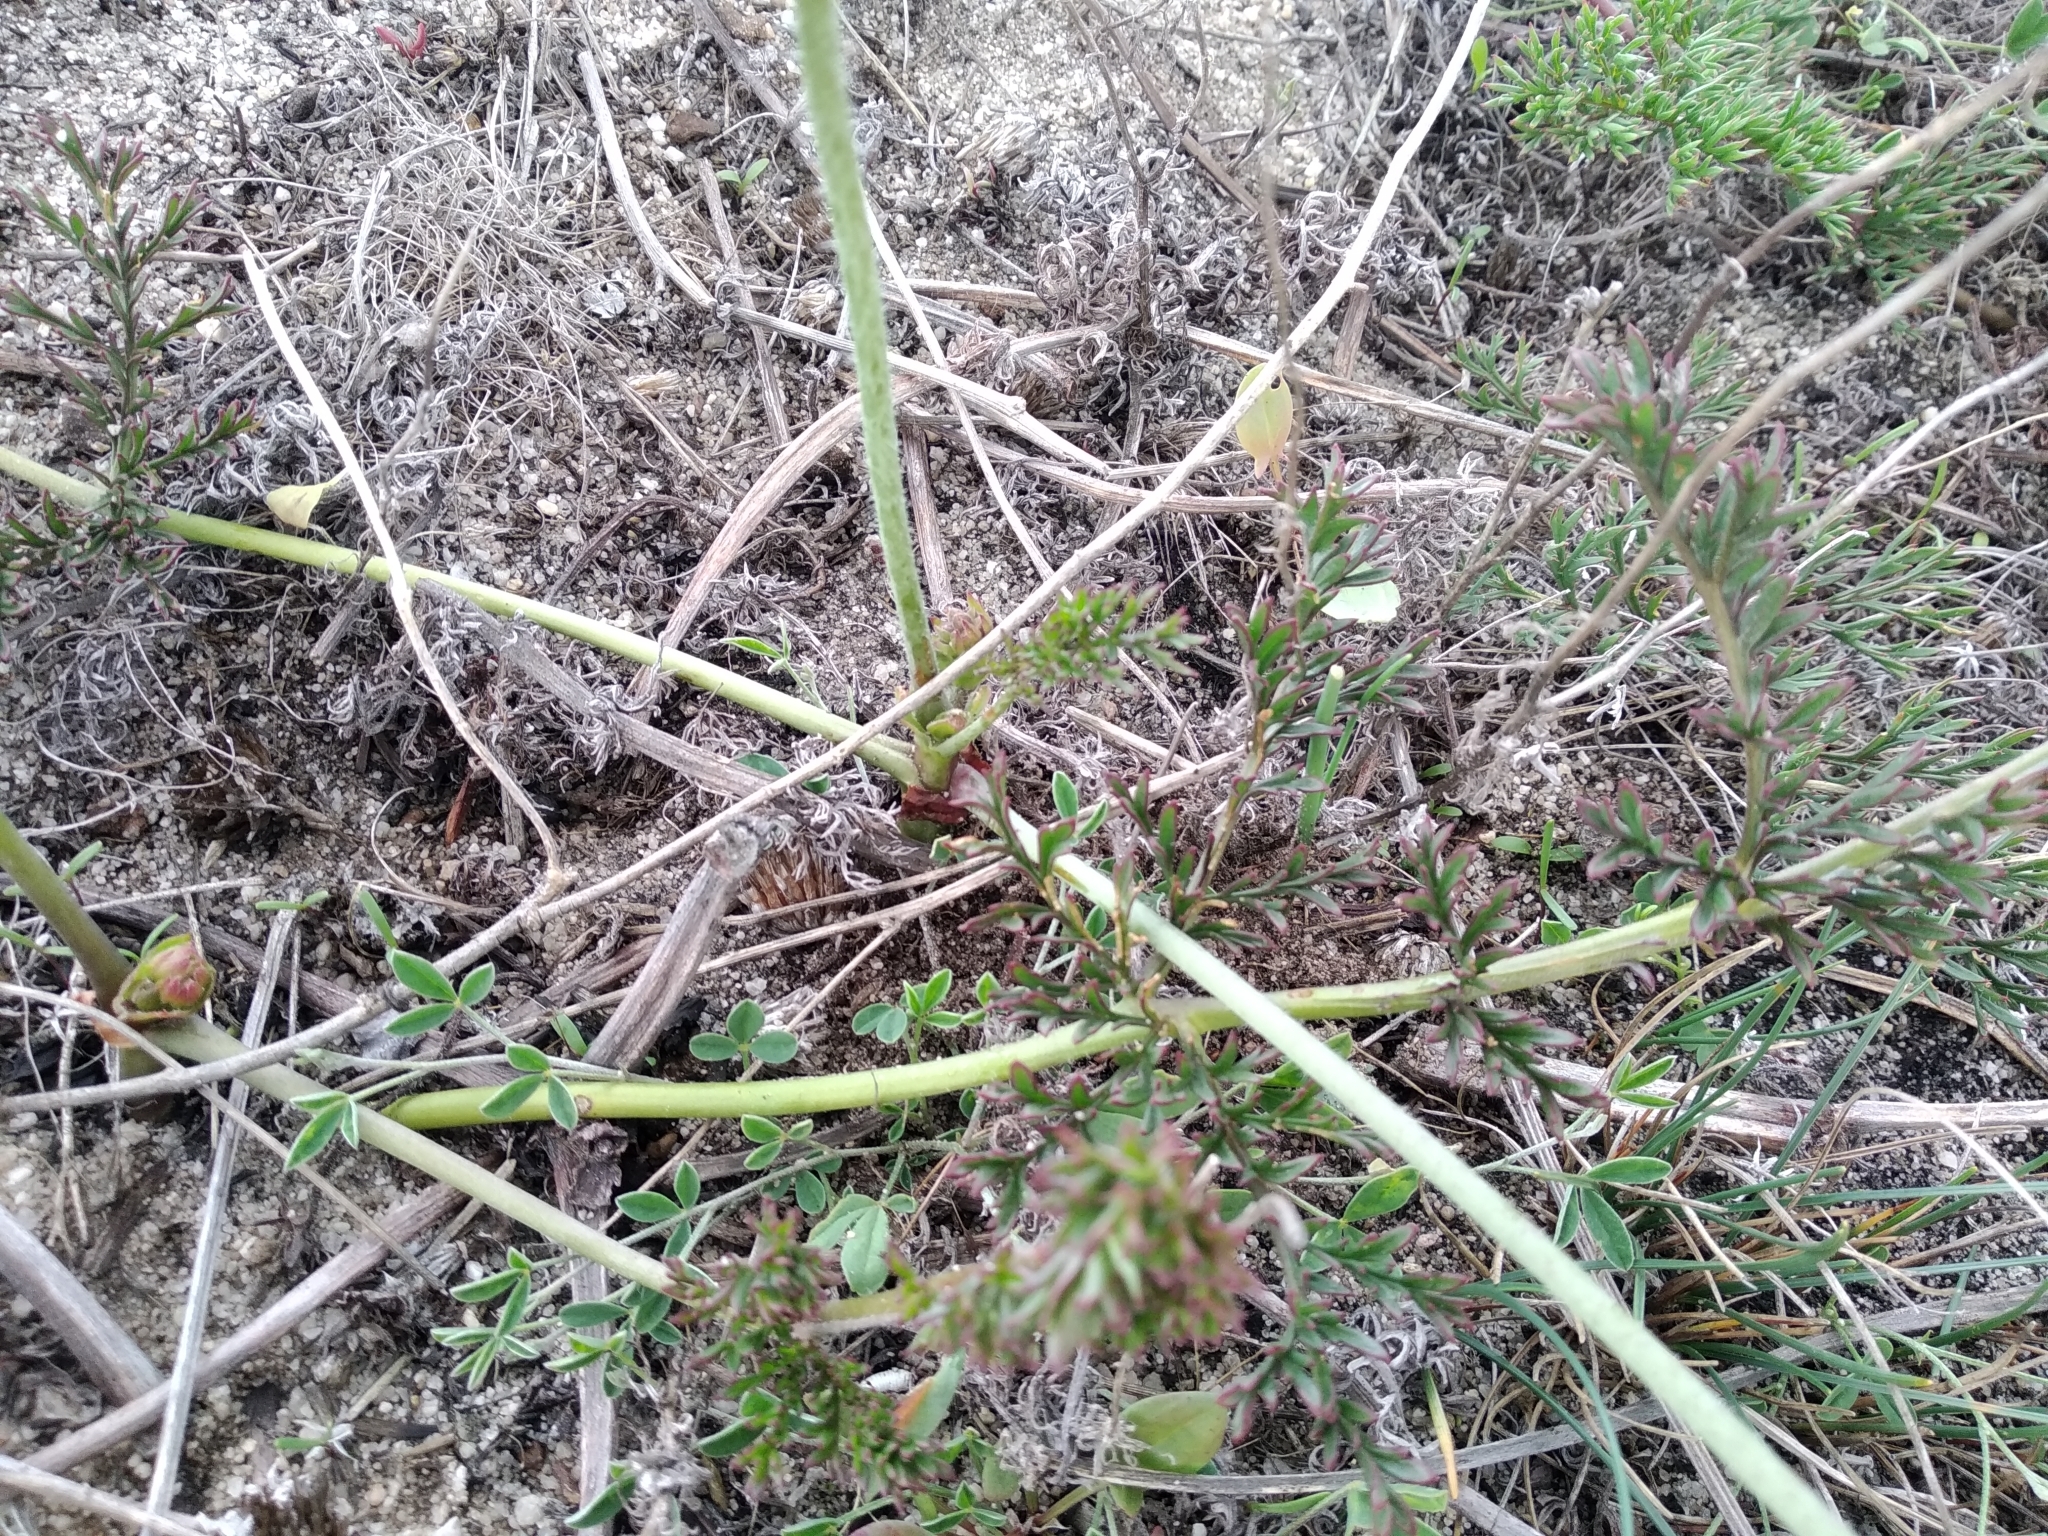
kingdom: Plantae
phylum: Tracheophyta
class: Magnoliopsida
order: Geraniales
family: Geraniaceae
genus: Pelargonium
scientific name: Pelargonium triste
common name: Night-scent pelargonium
